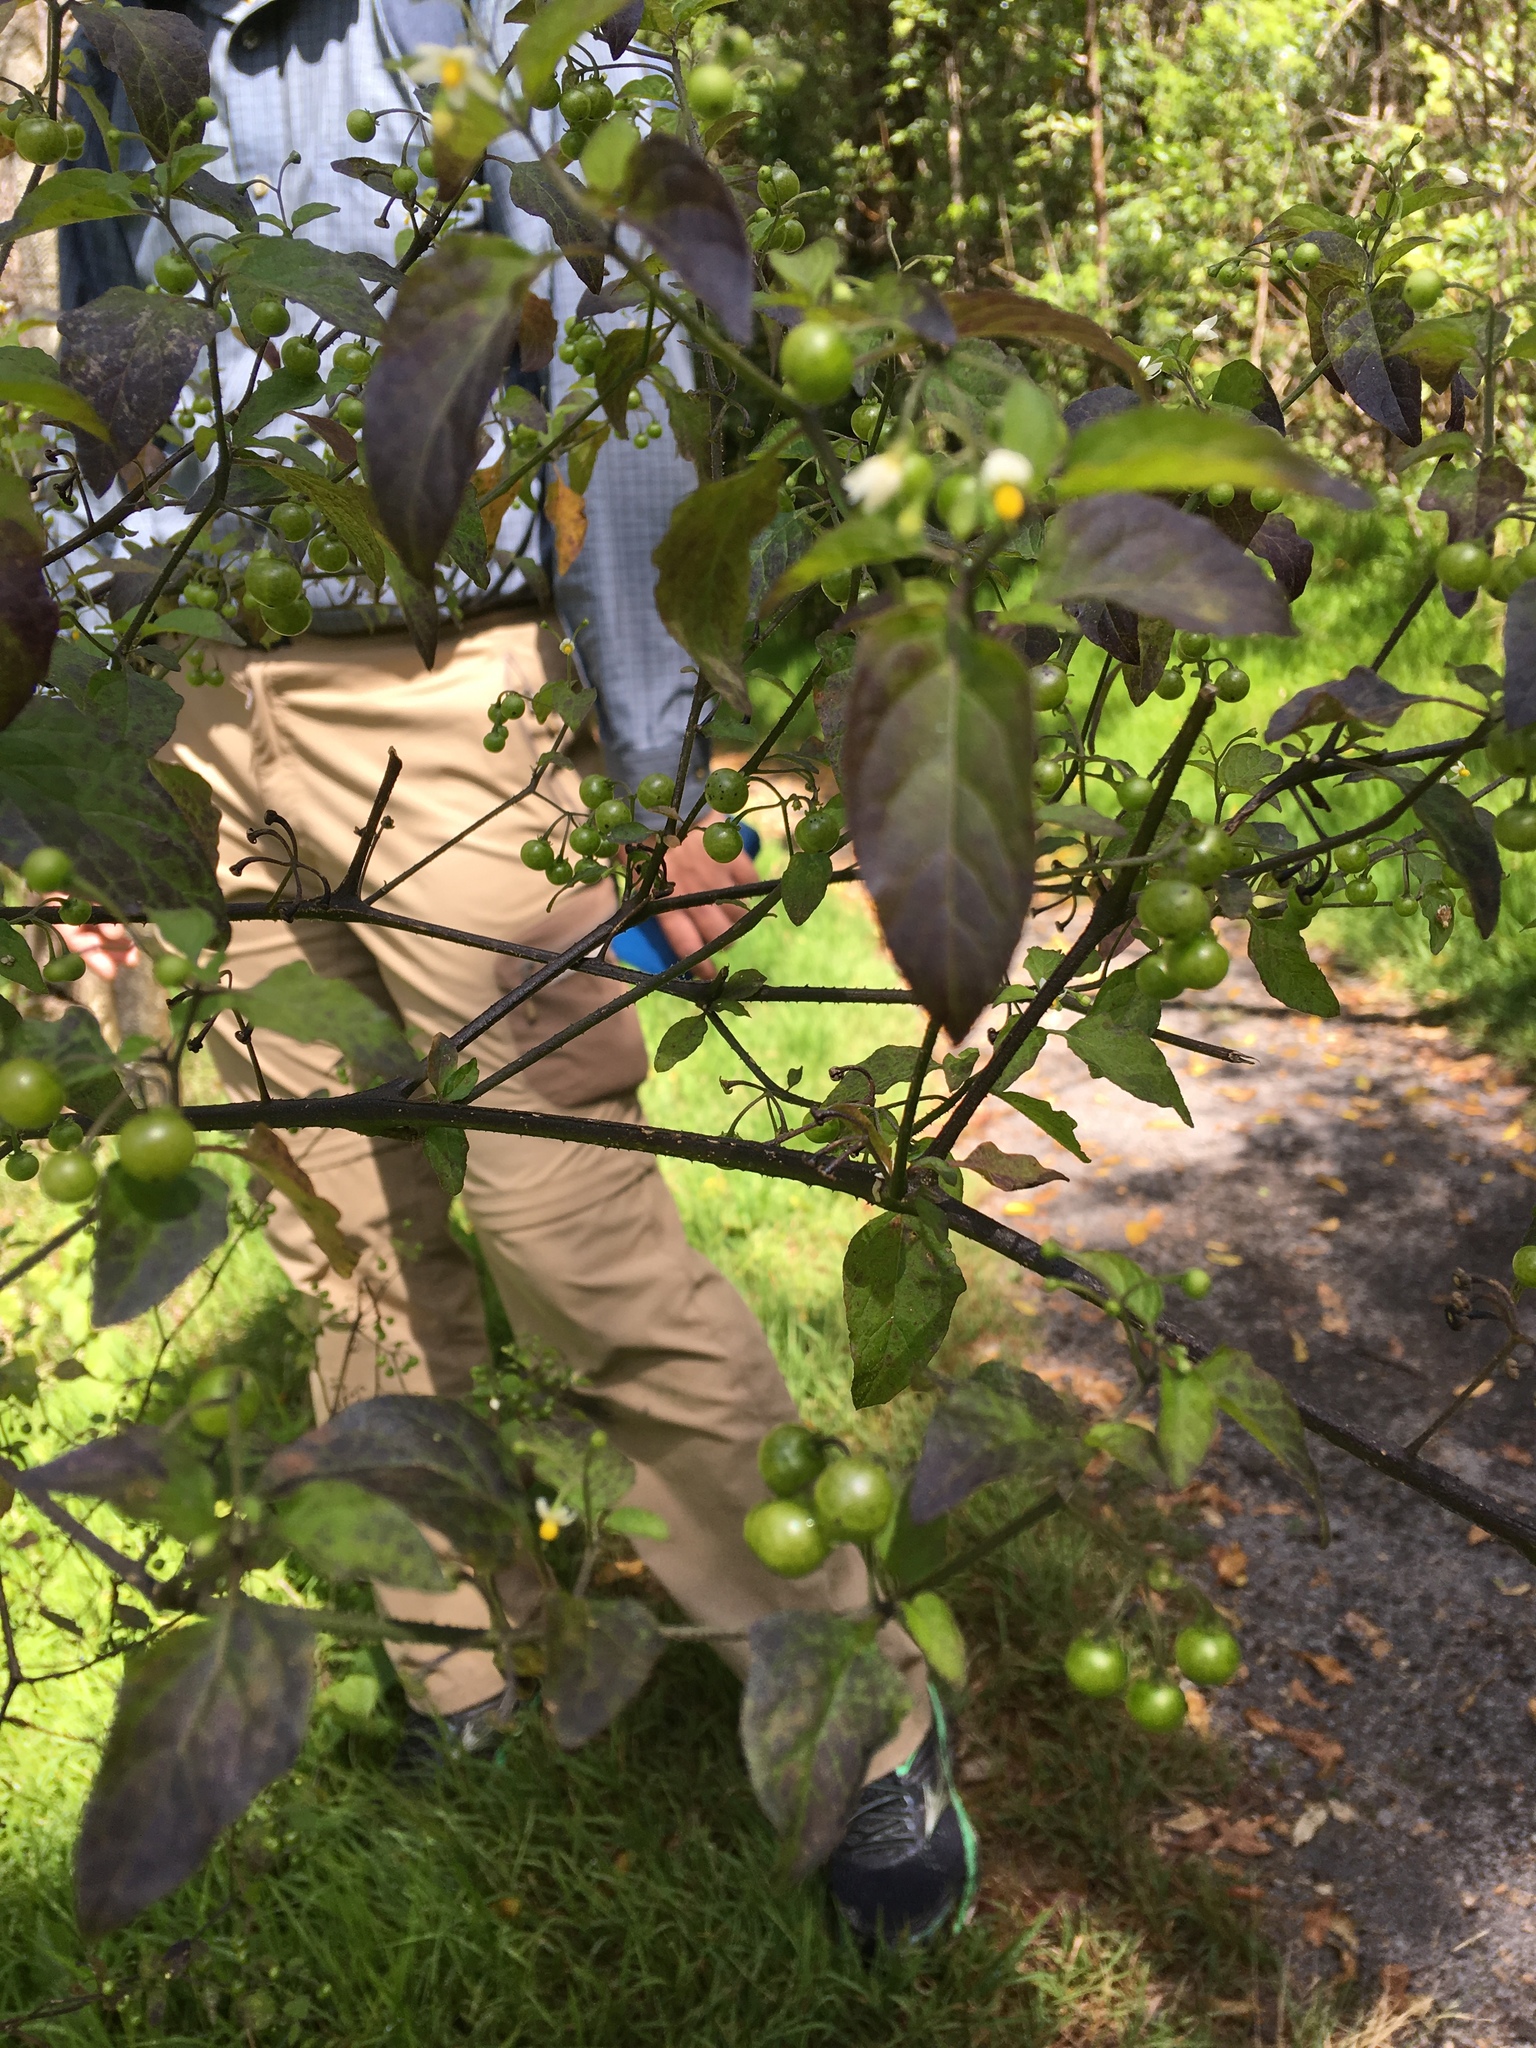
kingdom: Plantae
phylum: Tracheophyta
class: Magnoliopsida
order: Solanales
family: Solanaceae
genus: Solanum
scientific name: Solanum americanum
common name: American black nightshade
